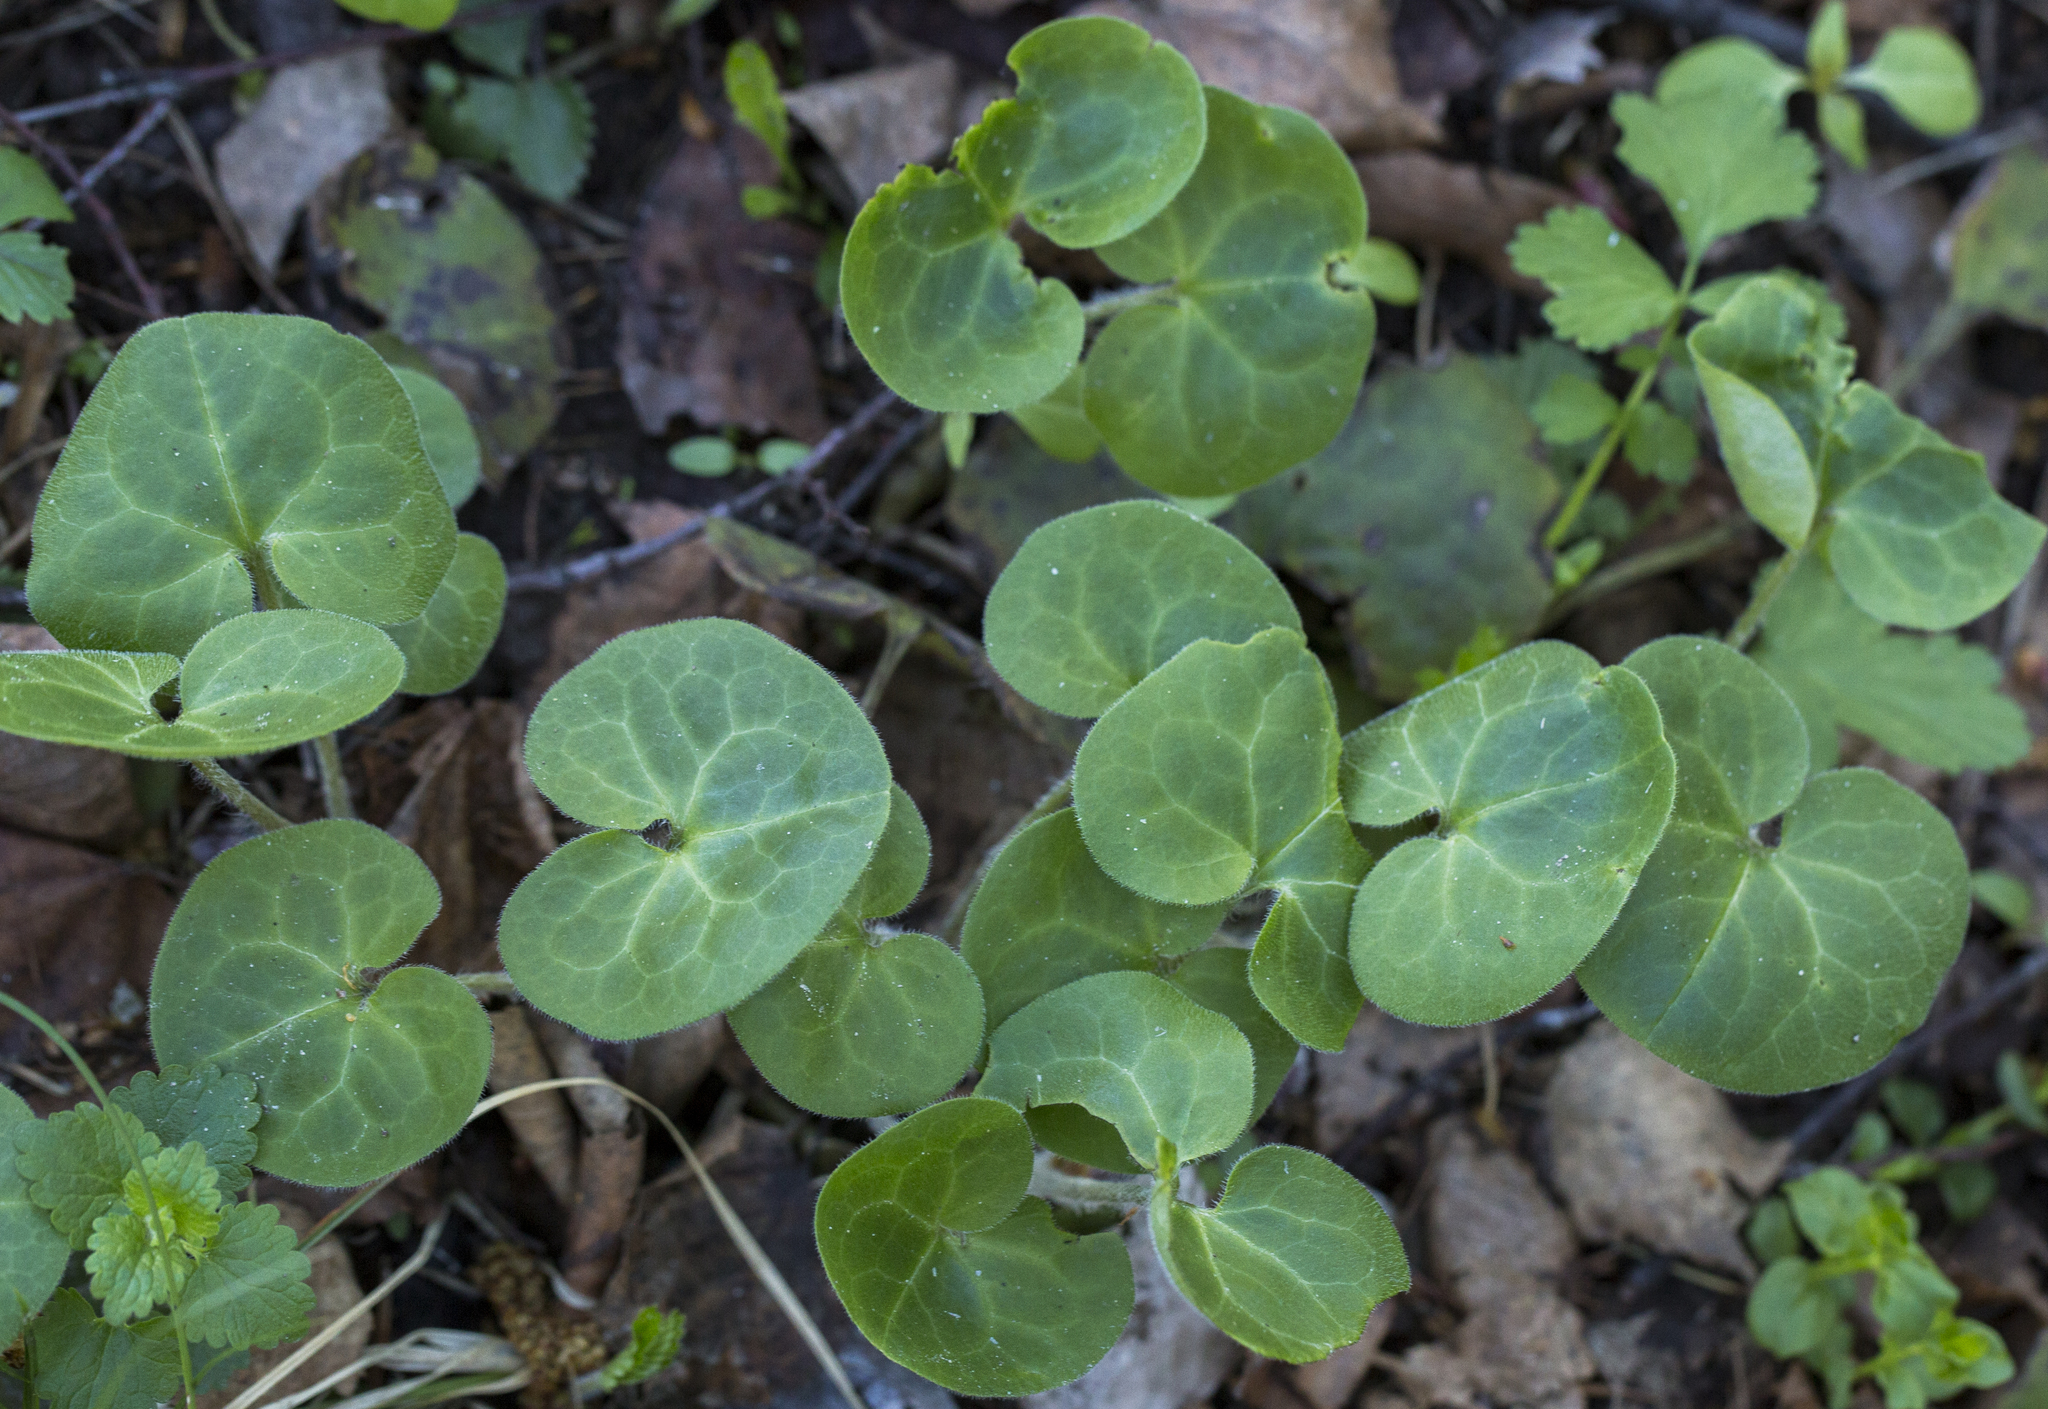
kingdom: Plantae
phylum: Tracheophyta
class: Magnoliopsida
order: Piperales
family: Aristolochiaceae
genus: Asarum
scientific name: Asarum europaeum
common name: Asarabacca
